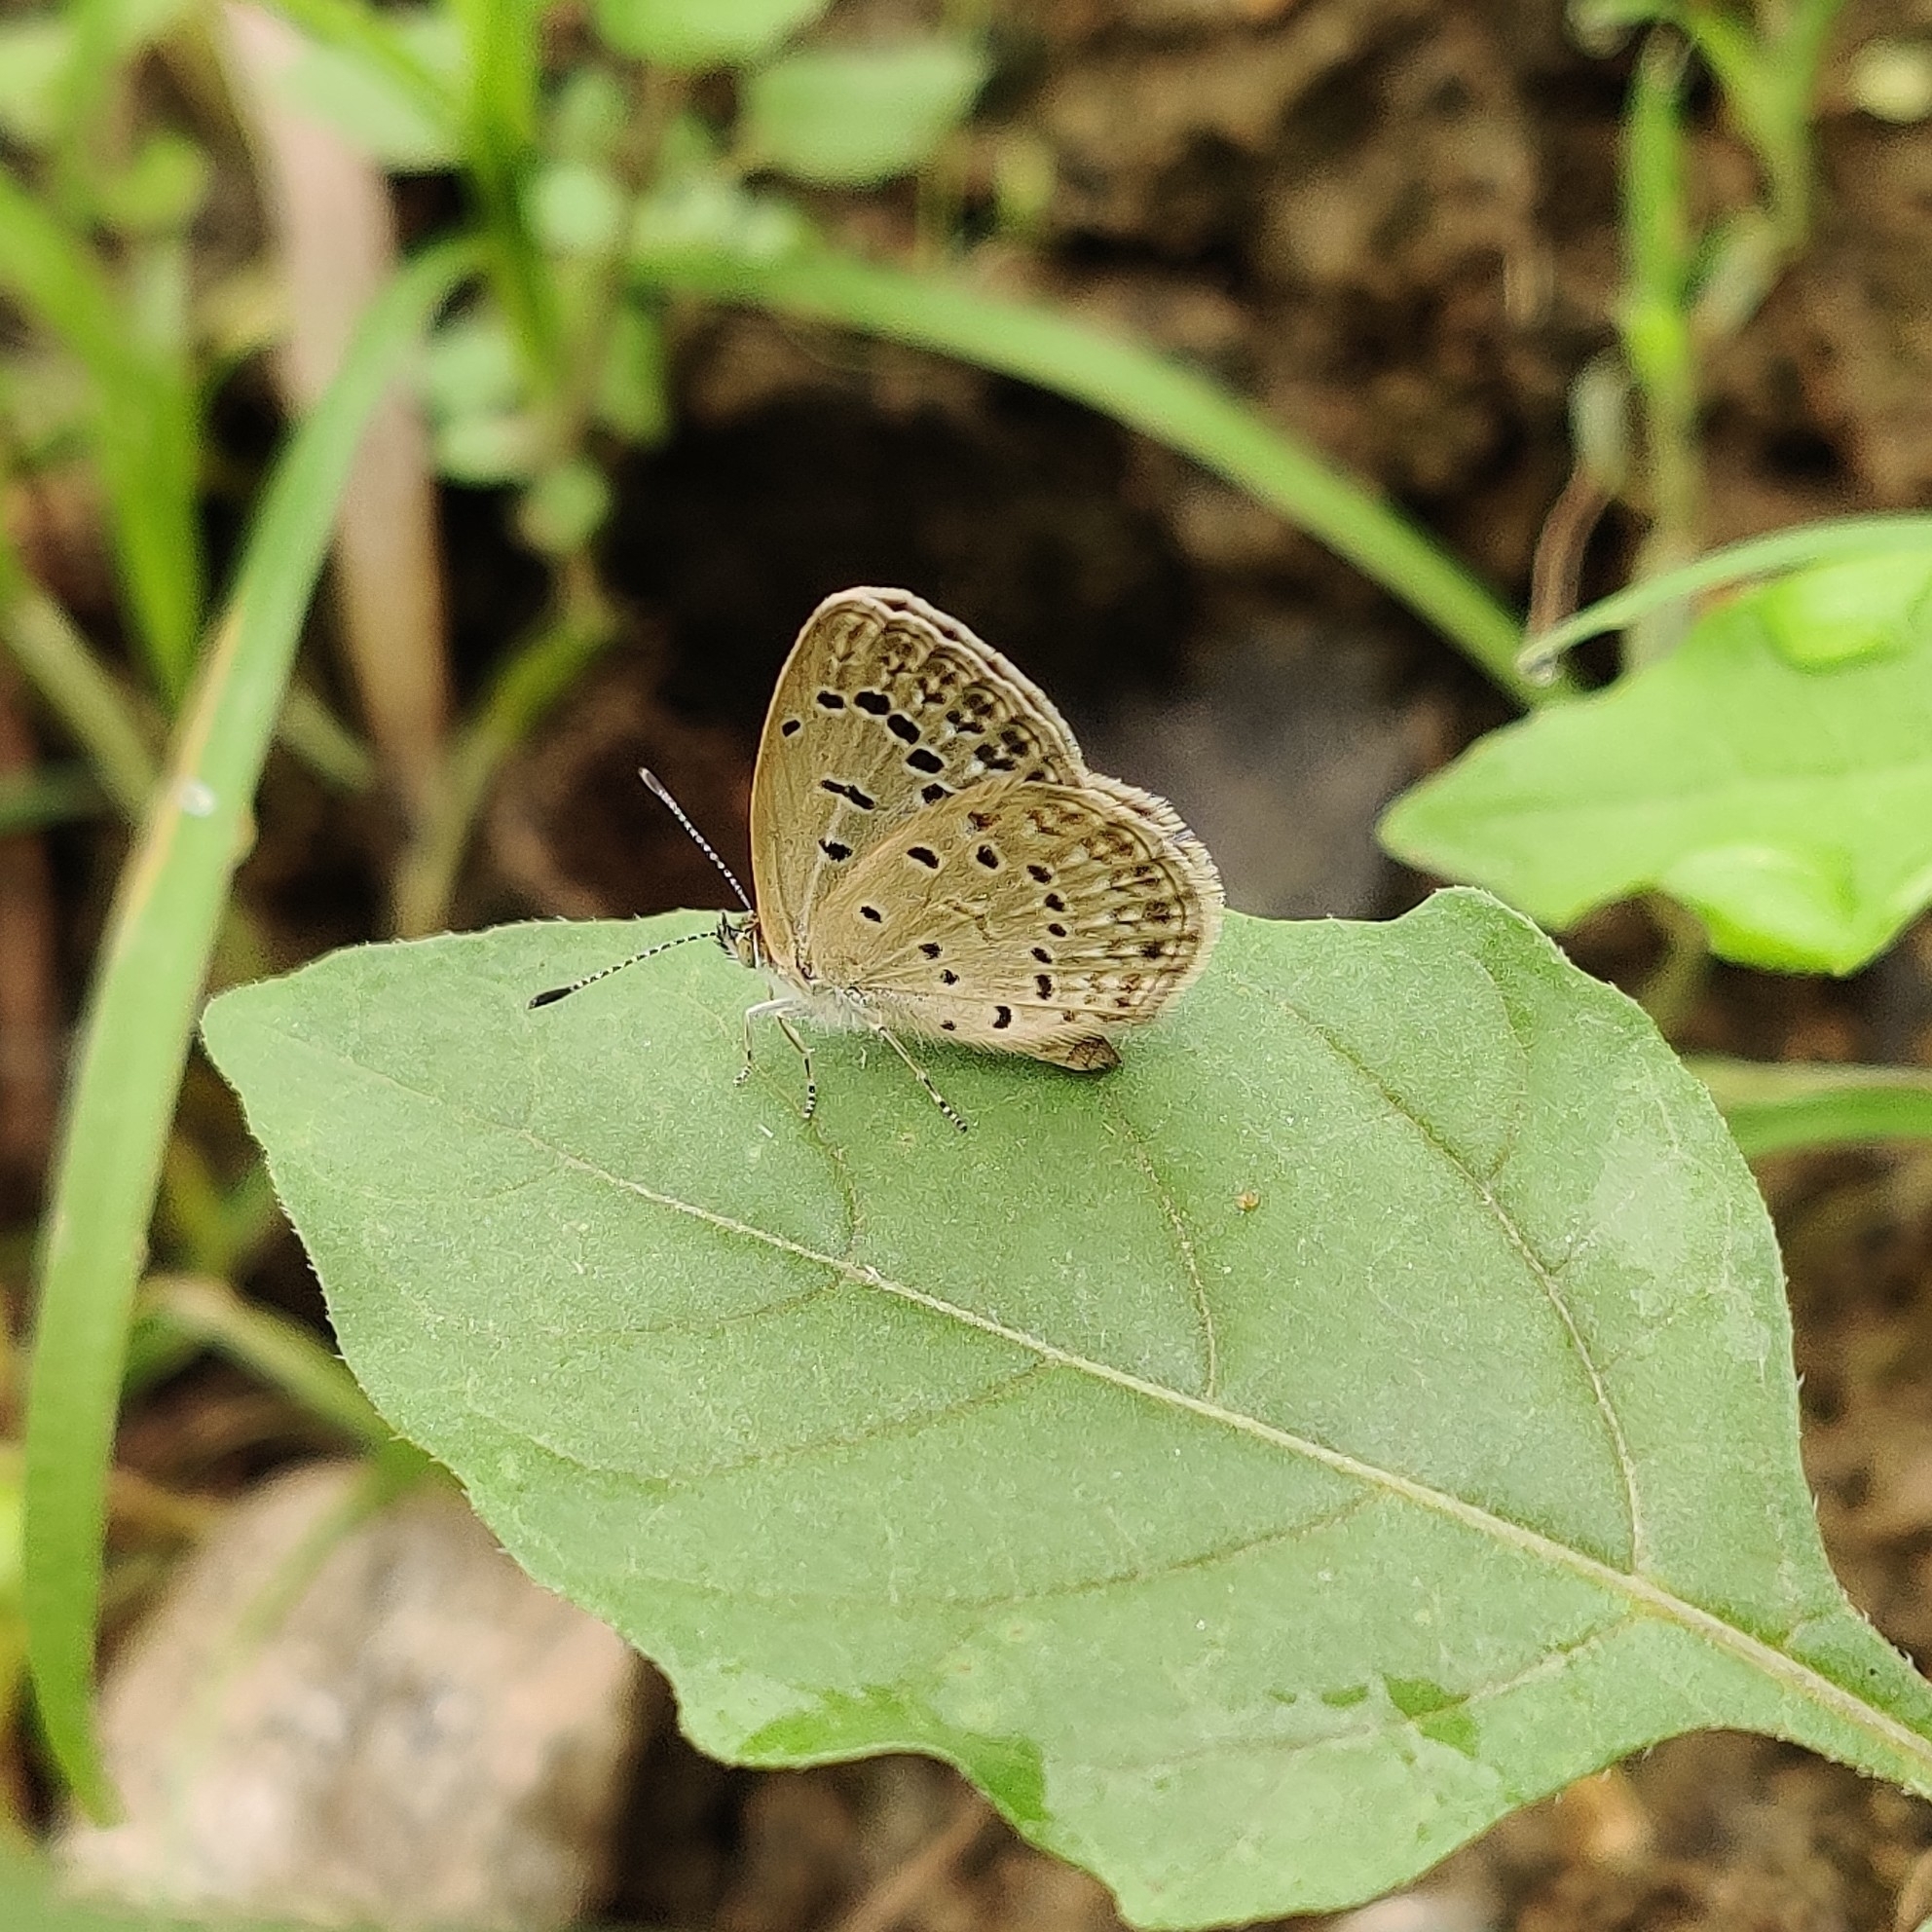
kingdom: Animalia
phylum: Arthropoda
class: Insecta
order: Lepidoptera
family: Lycaenidae
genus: Pseudozizeeria
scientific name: Pseudozizeeria maha
